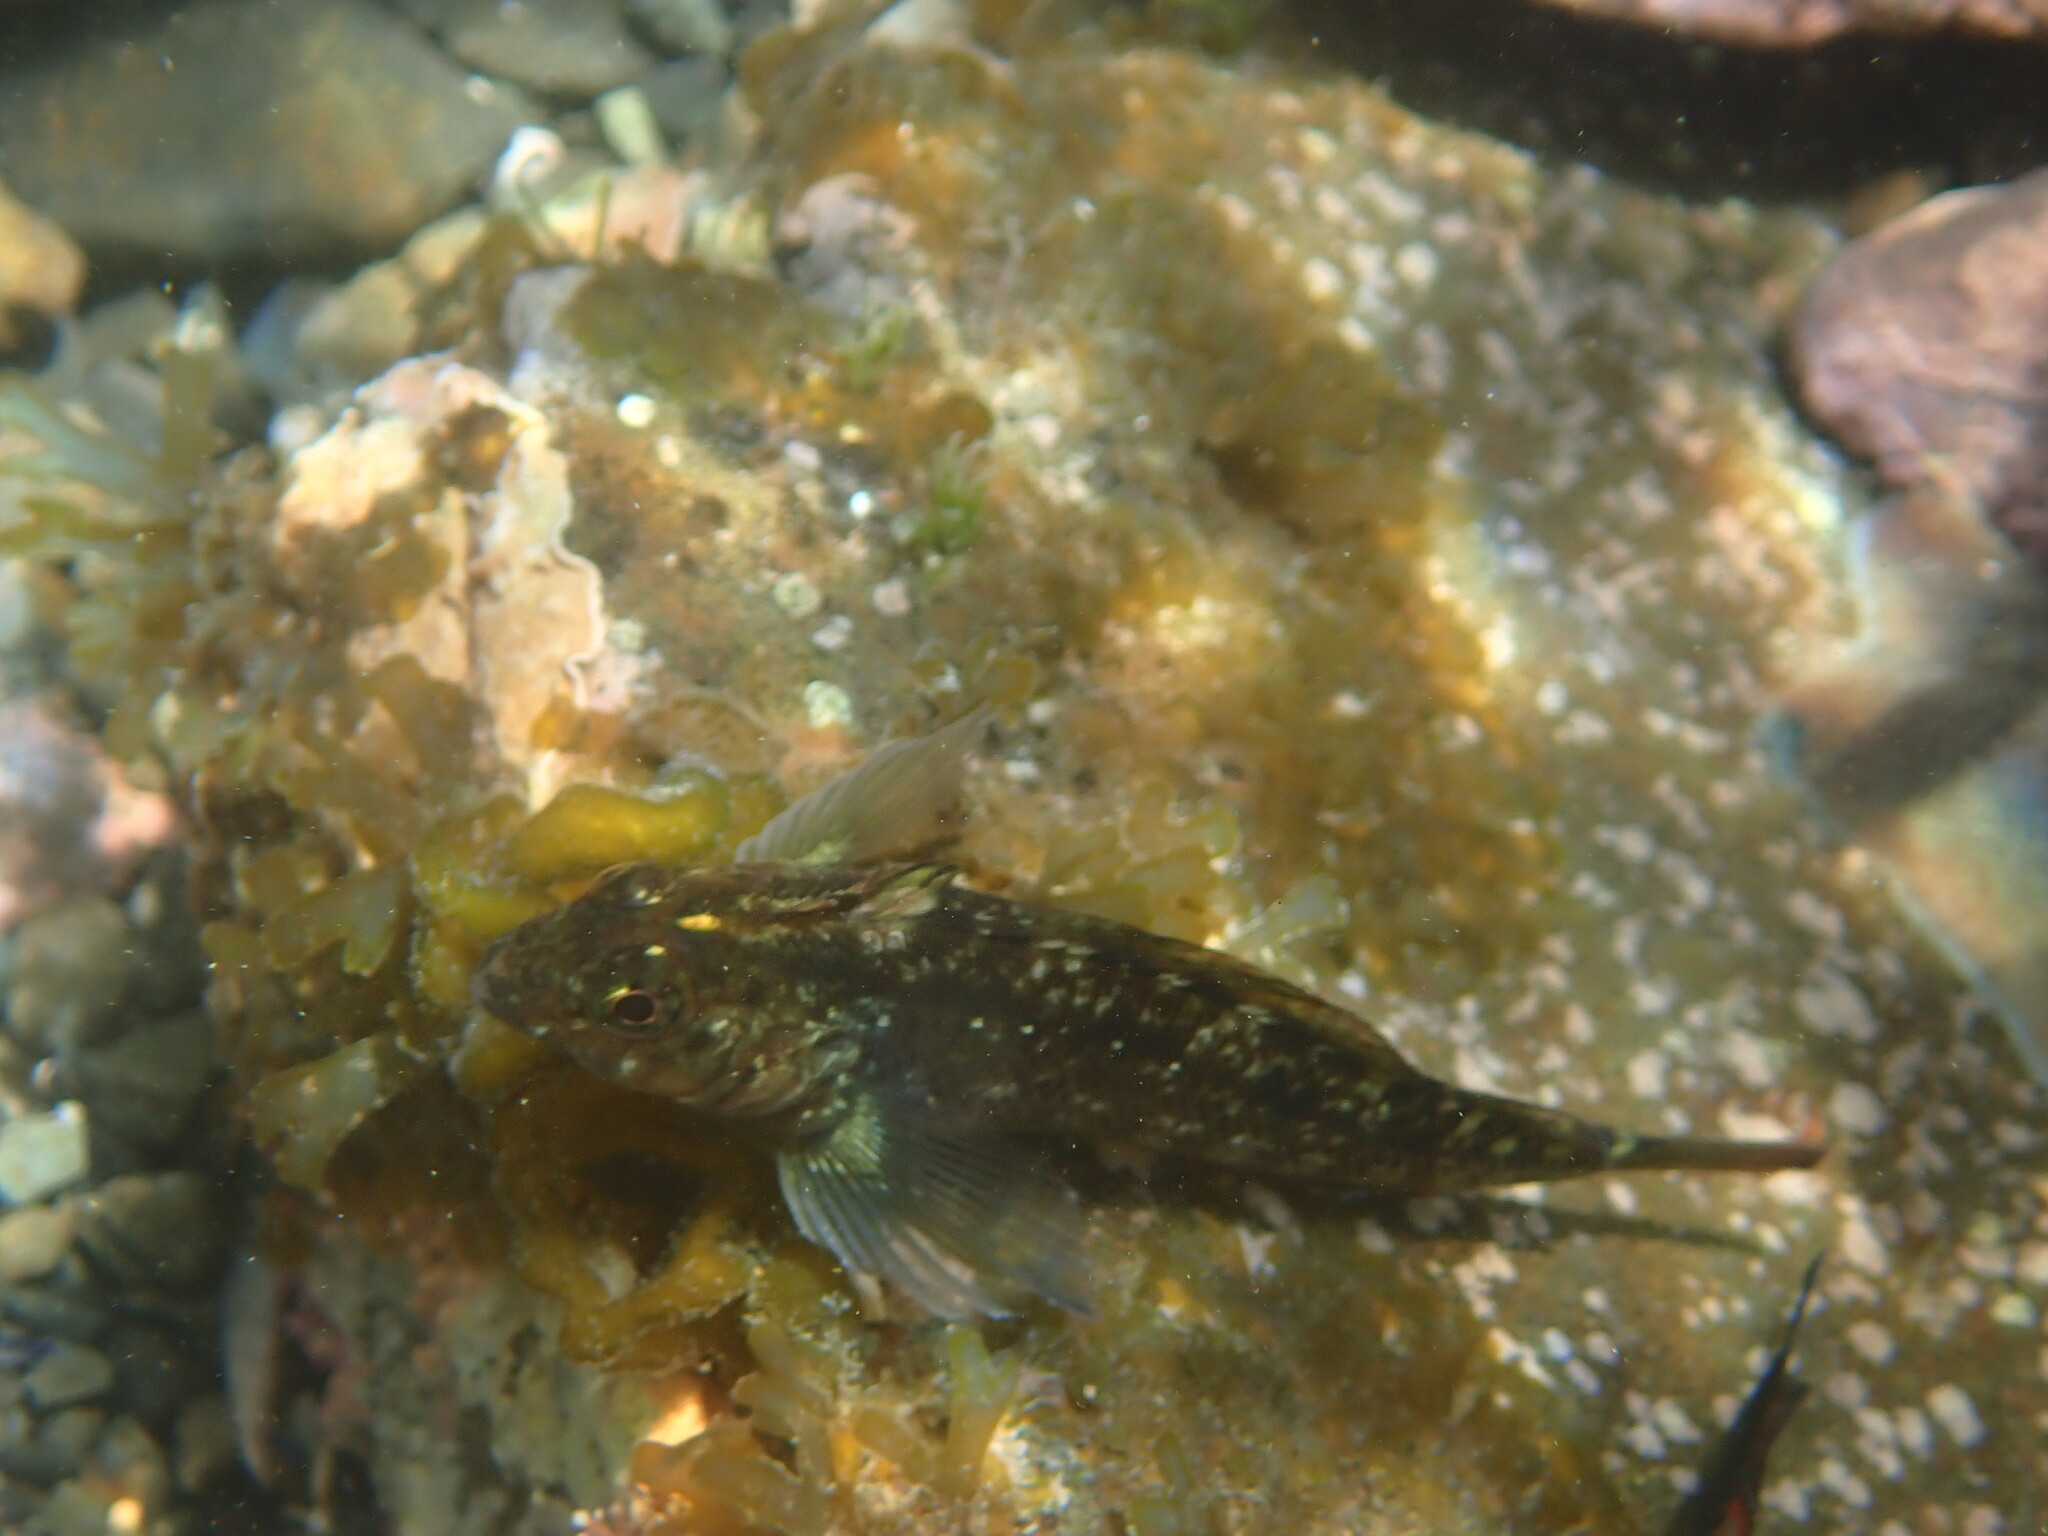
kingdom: Animalia
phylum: Chordata
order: Perciformes
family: Tripterygiidae
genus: Forsterygion
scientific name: Forsterygion lapillum
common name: Common triplefin
